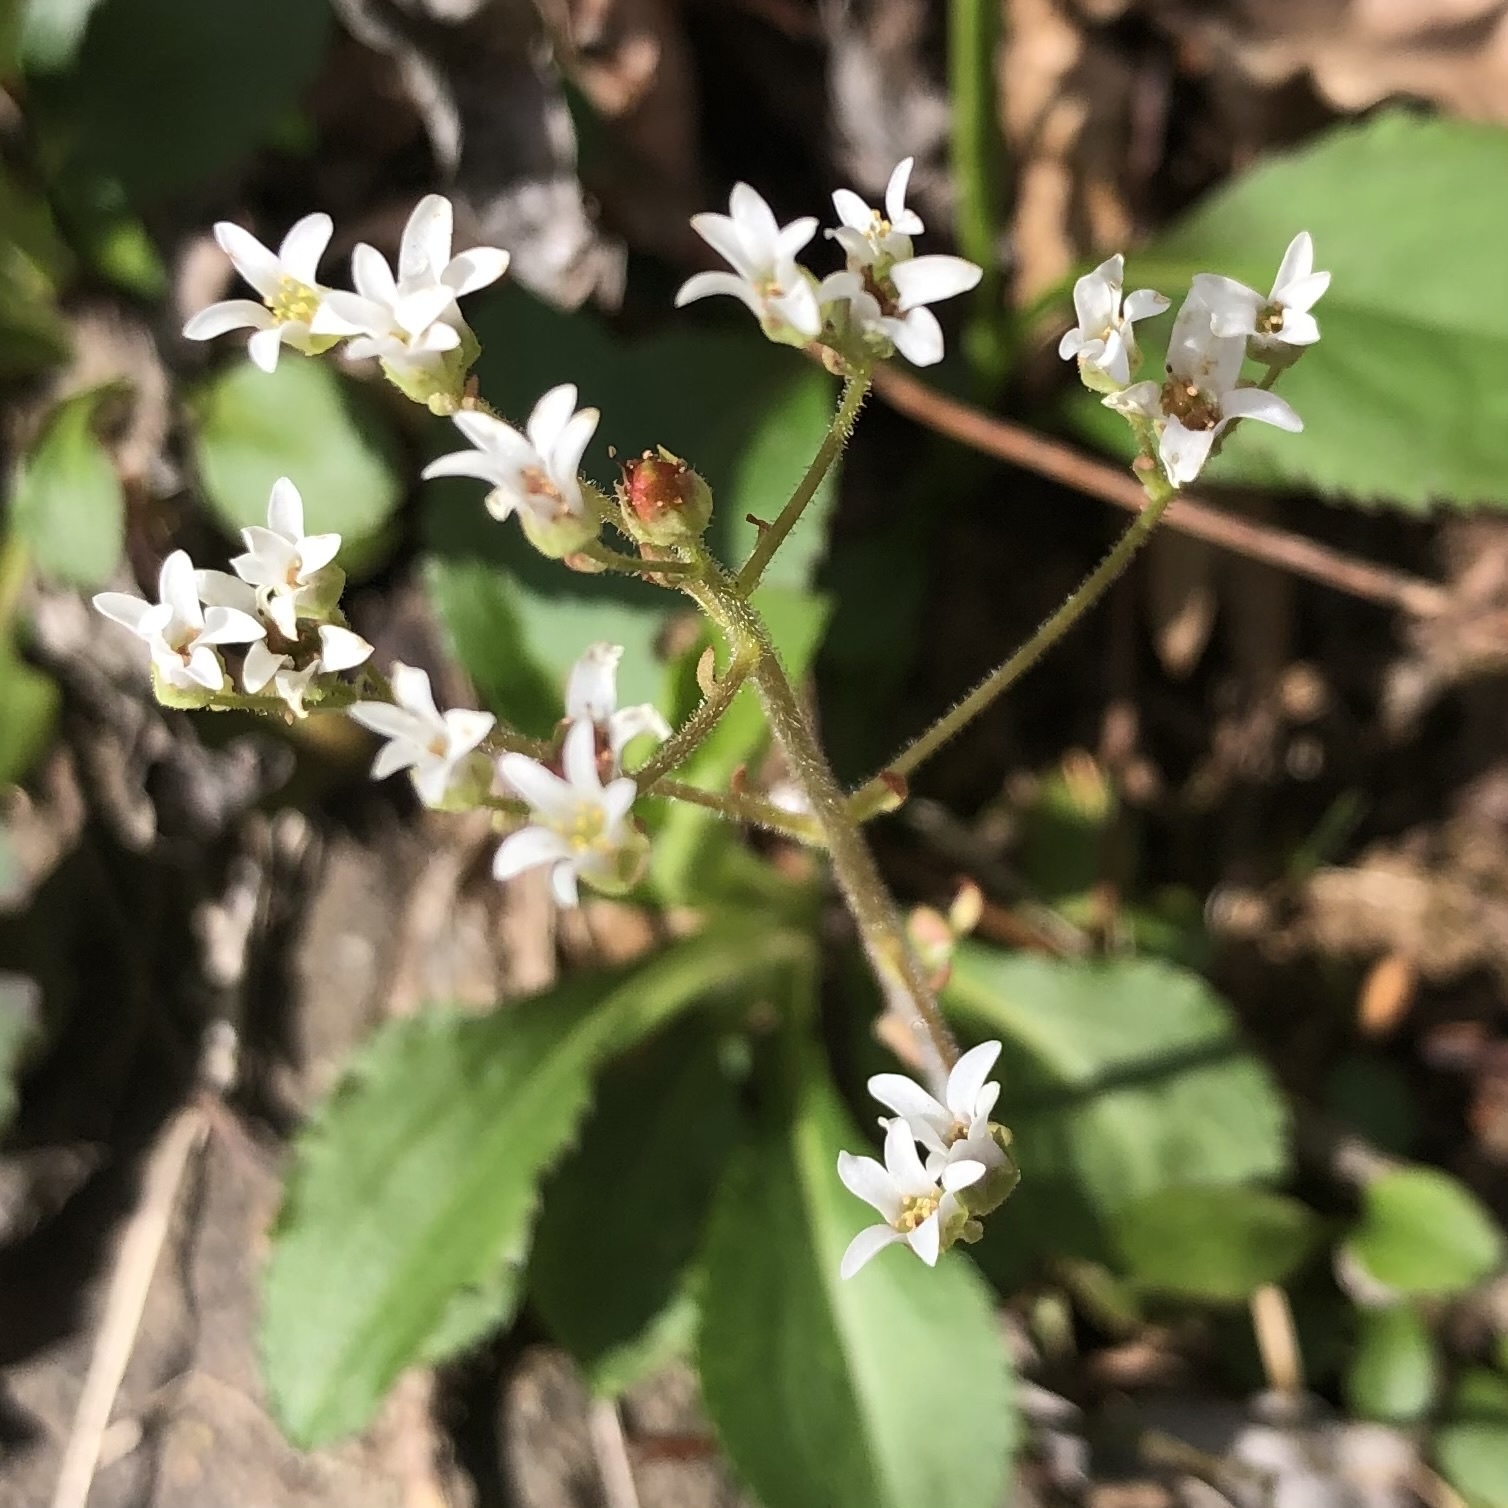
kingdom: Plantae
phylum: Tracheophyta
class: Magnoliopsida
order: Saxifragales
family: Saxifragaceae
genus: Micranthes
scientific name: Micranthes virginiensis
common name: Early saxifrage
